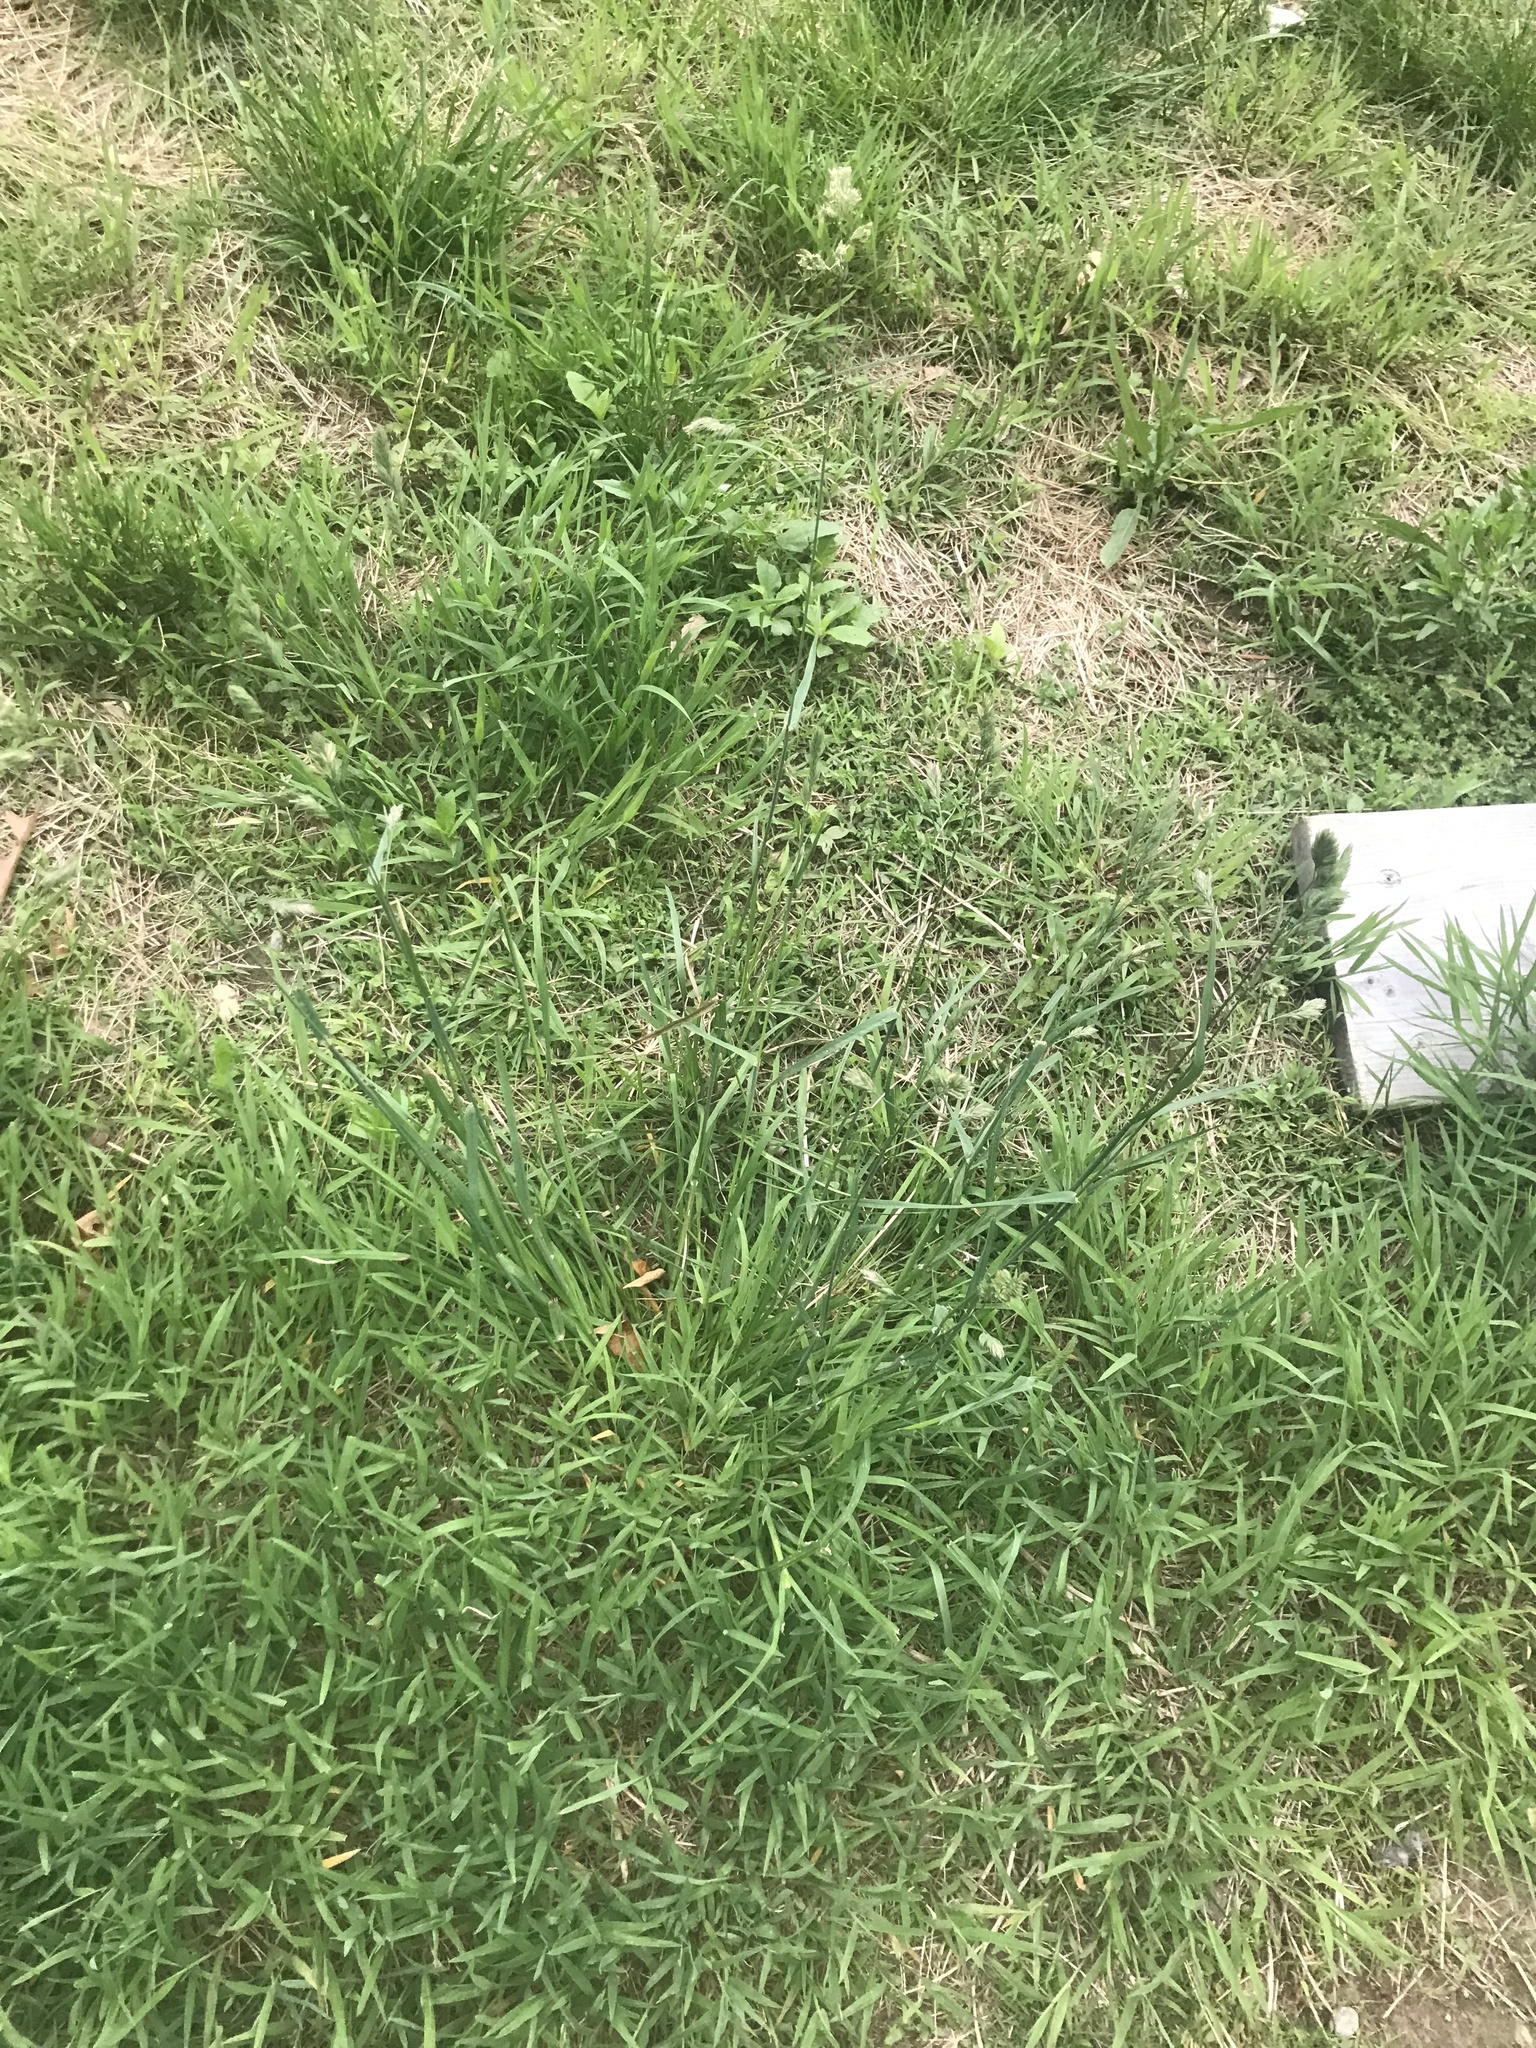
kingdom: Plantae
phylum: Tracheophyta
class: Liliopsida
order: Poales
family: Poaceae
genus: Dactylis
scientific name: Dactylis glomerata
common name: Orchardgrass
